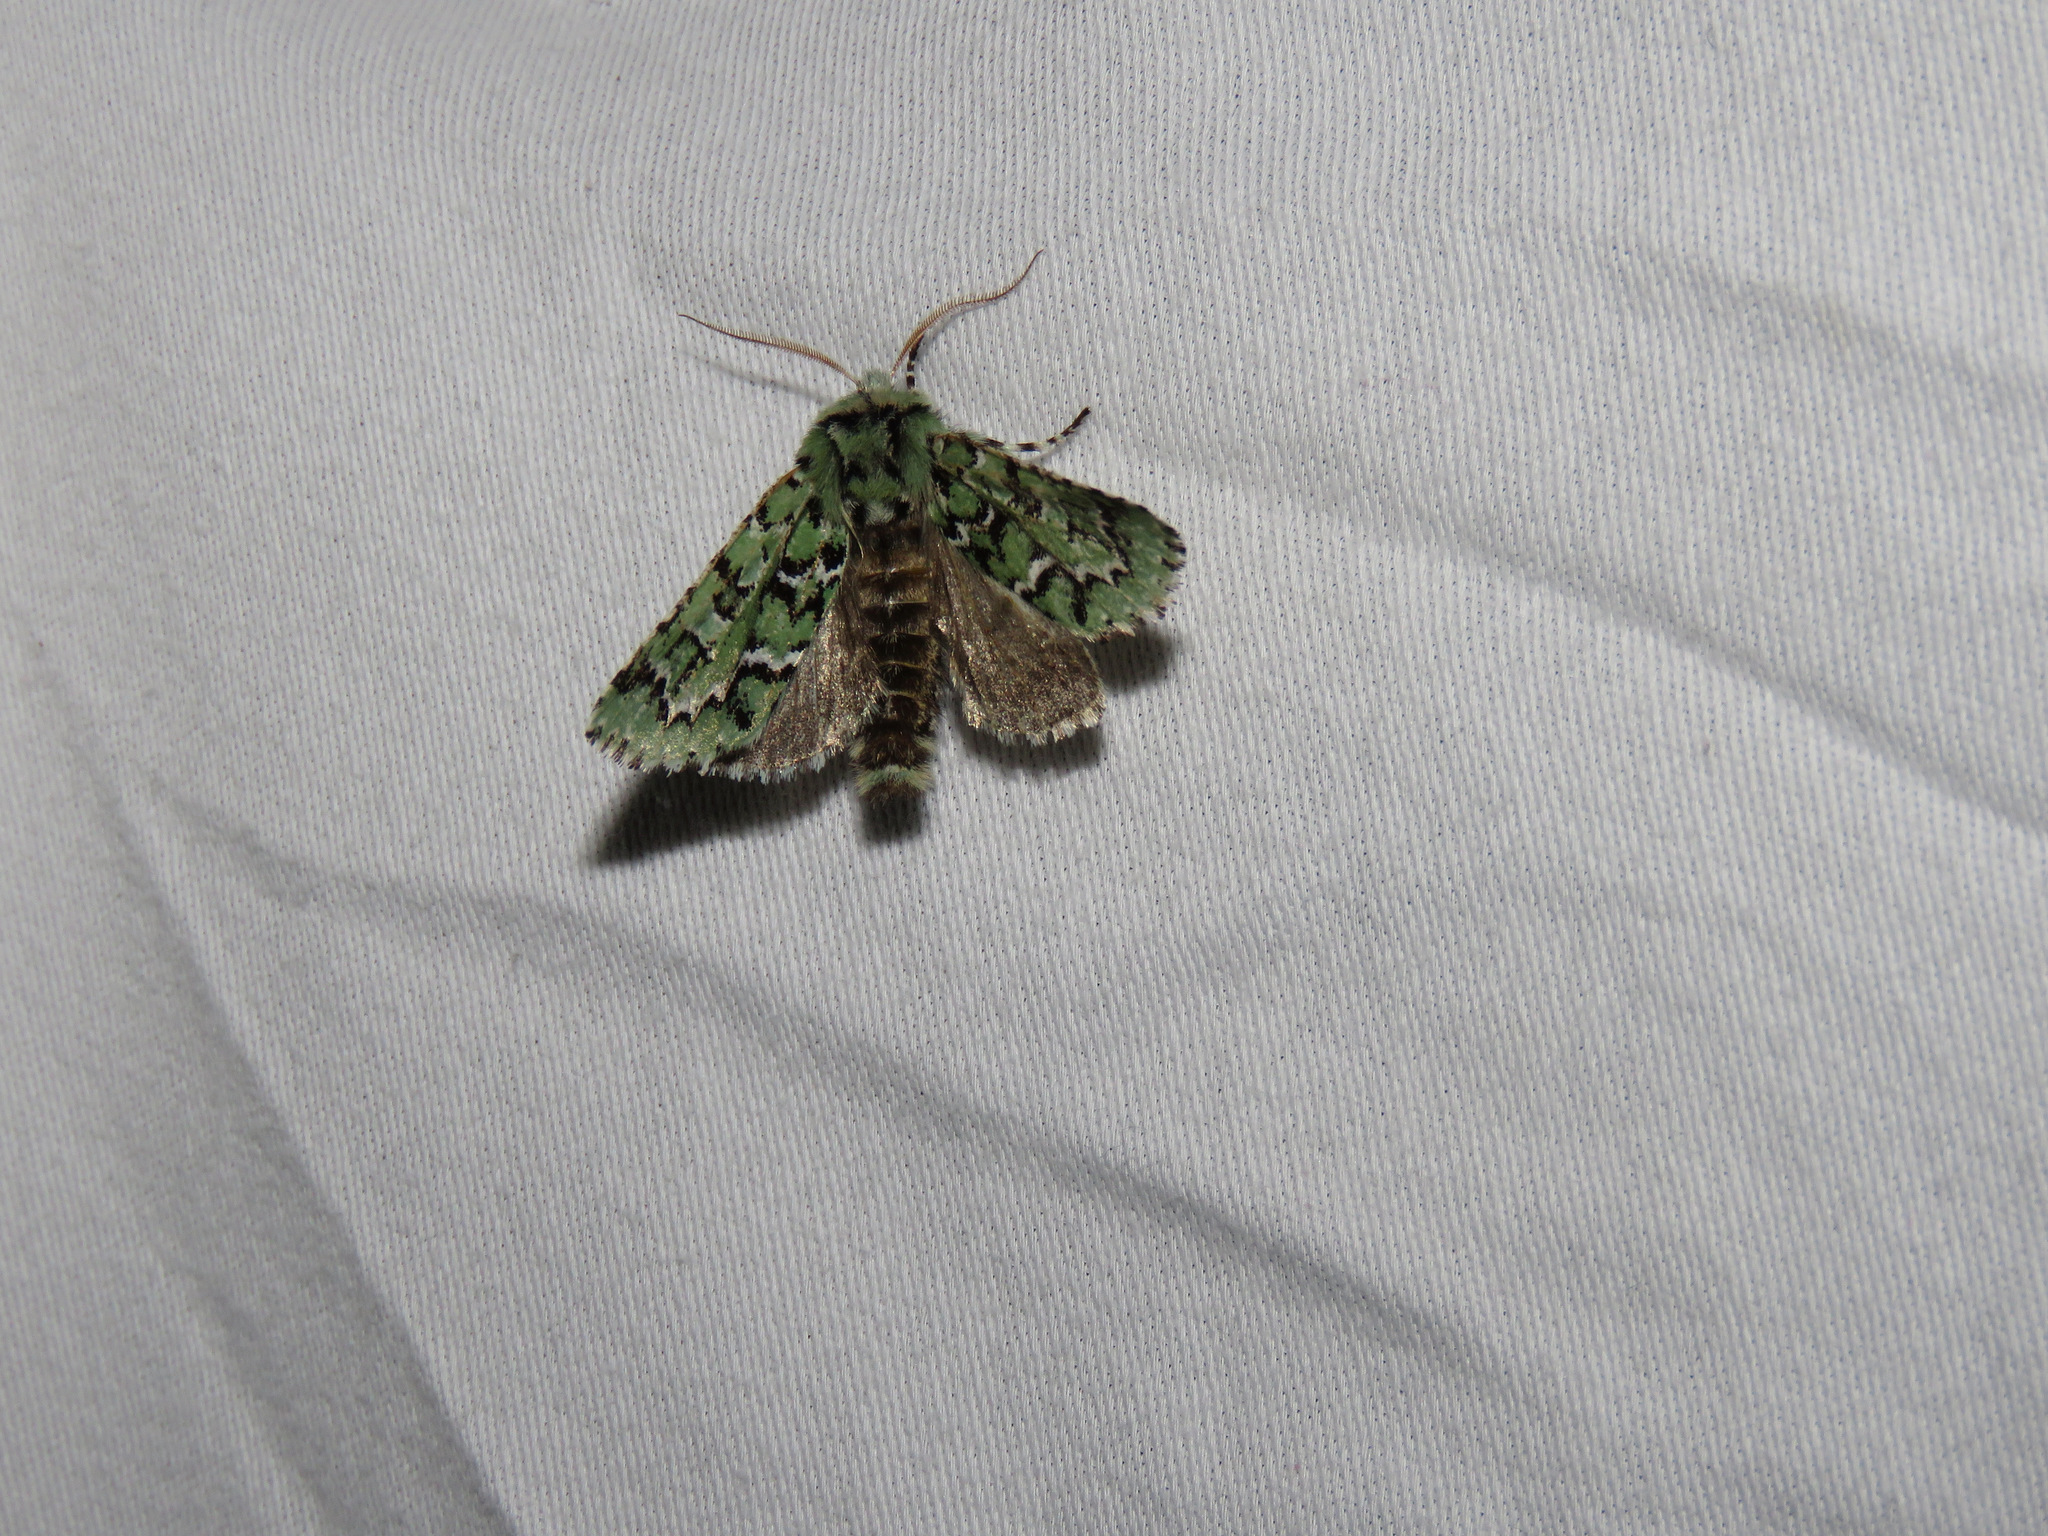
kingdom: Animalia
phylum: Arthropoda
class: Insecta
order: Lepidoptera
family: Noctuidae
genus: Feralia
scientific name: Feralia deceptiva
